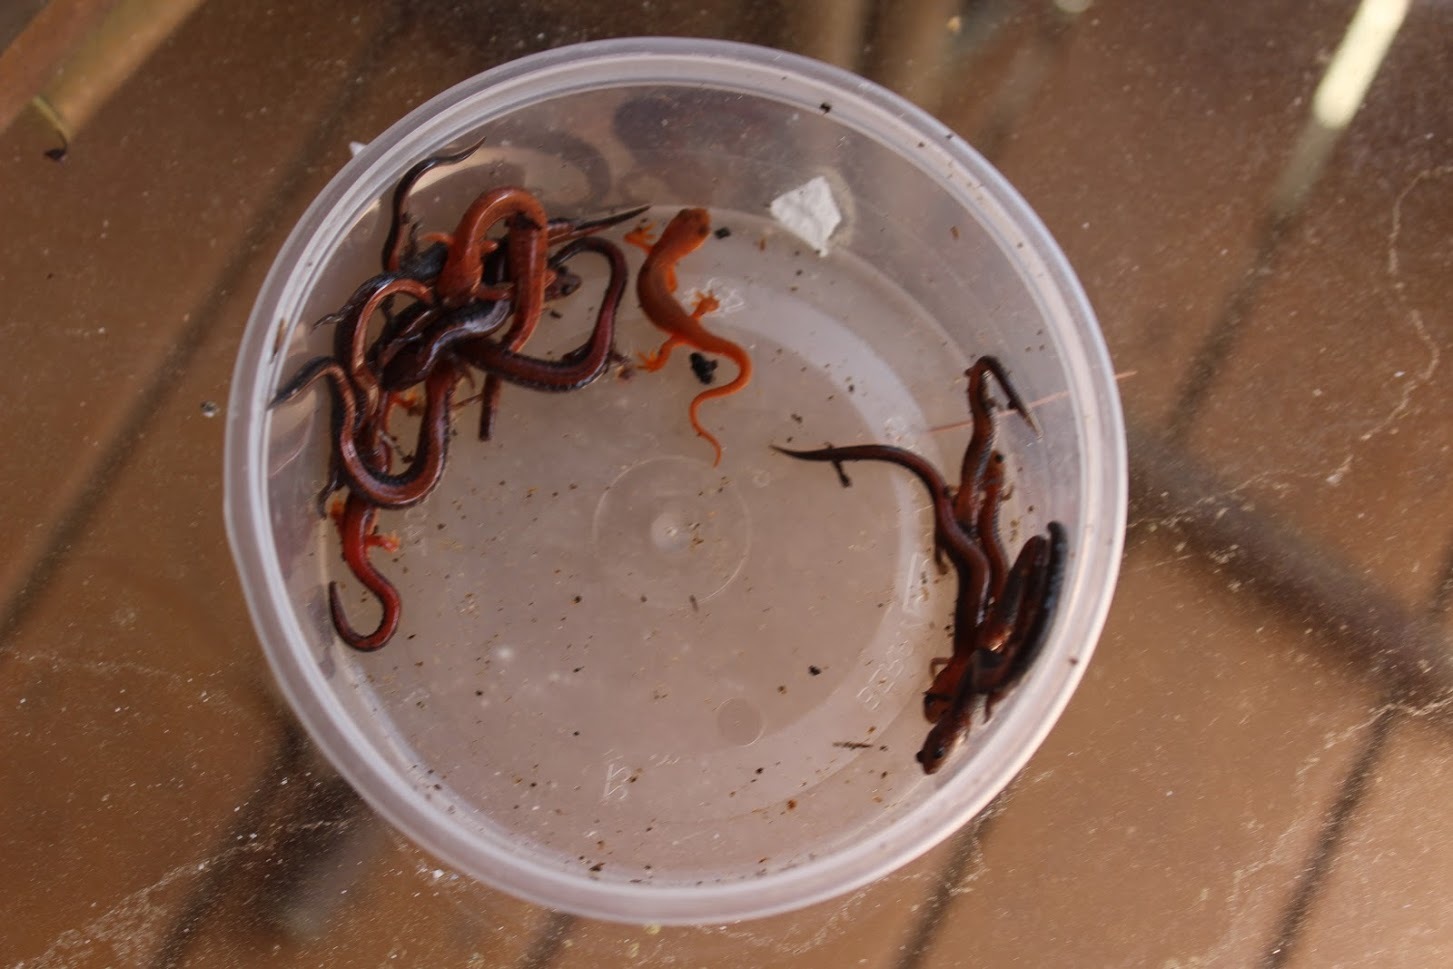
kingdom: Animalia
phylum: Chordata
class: Amphibia
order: Caudata
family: Plethodontidae
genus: Plethodon
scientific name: Plethodon cinereus
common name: Redback salamander
